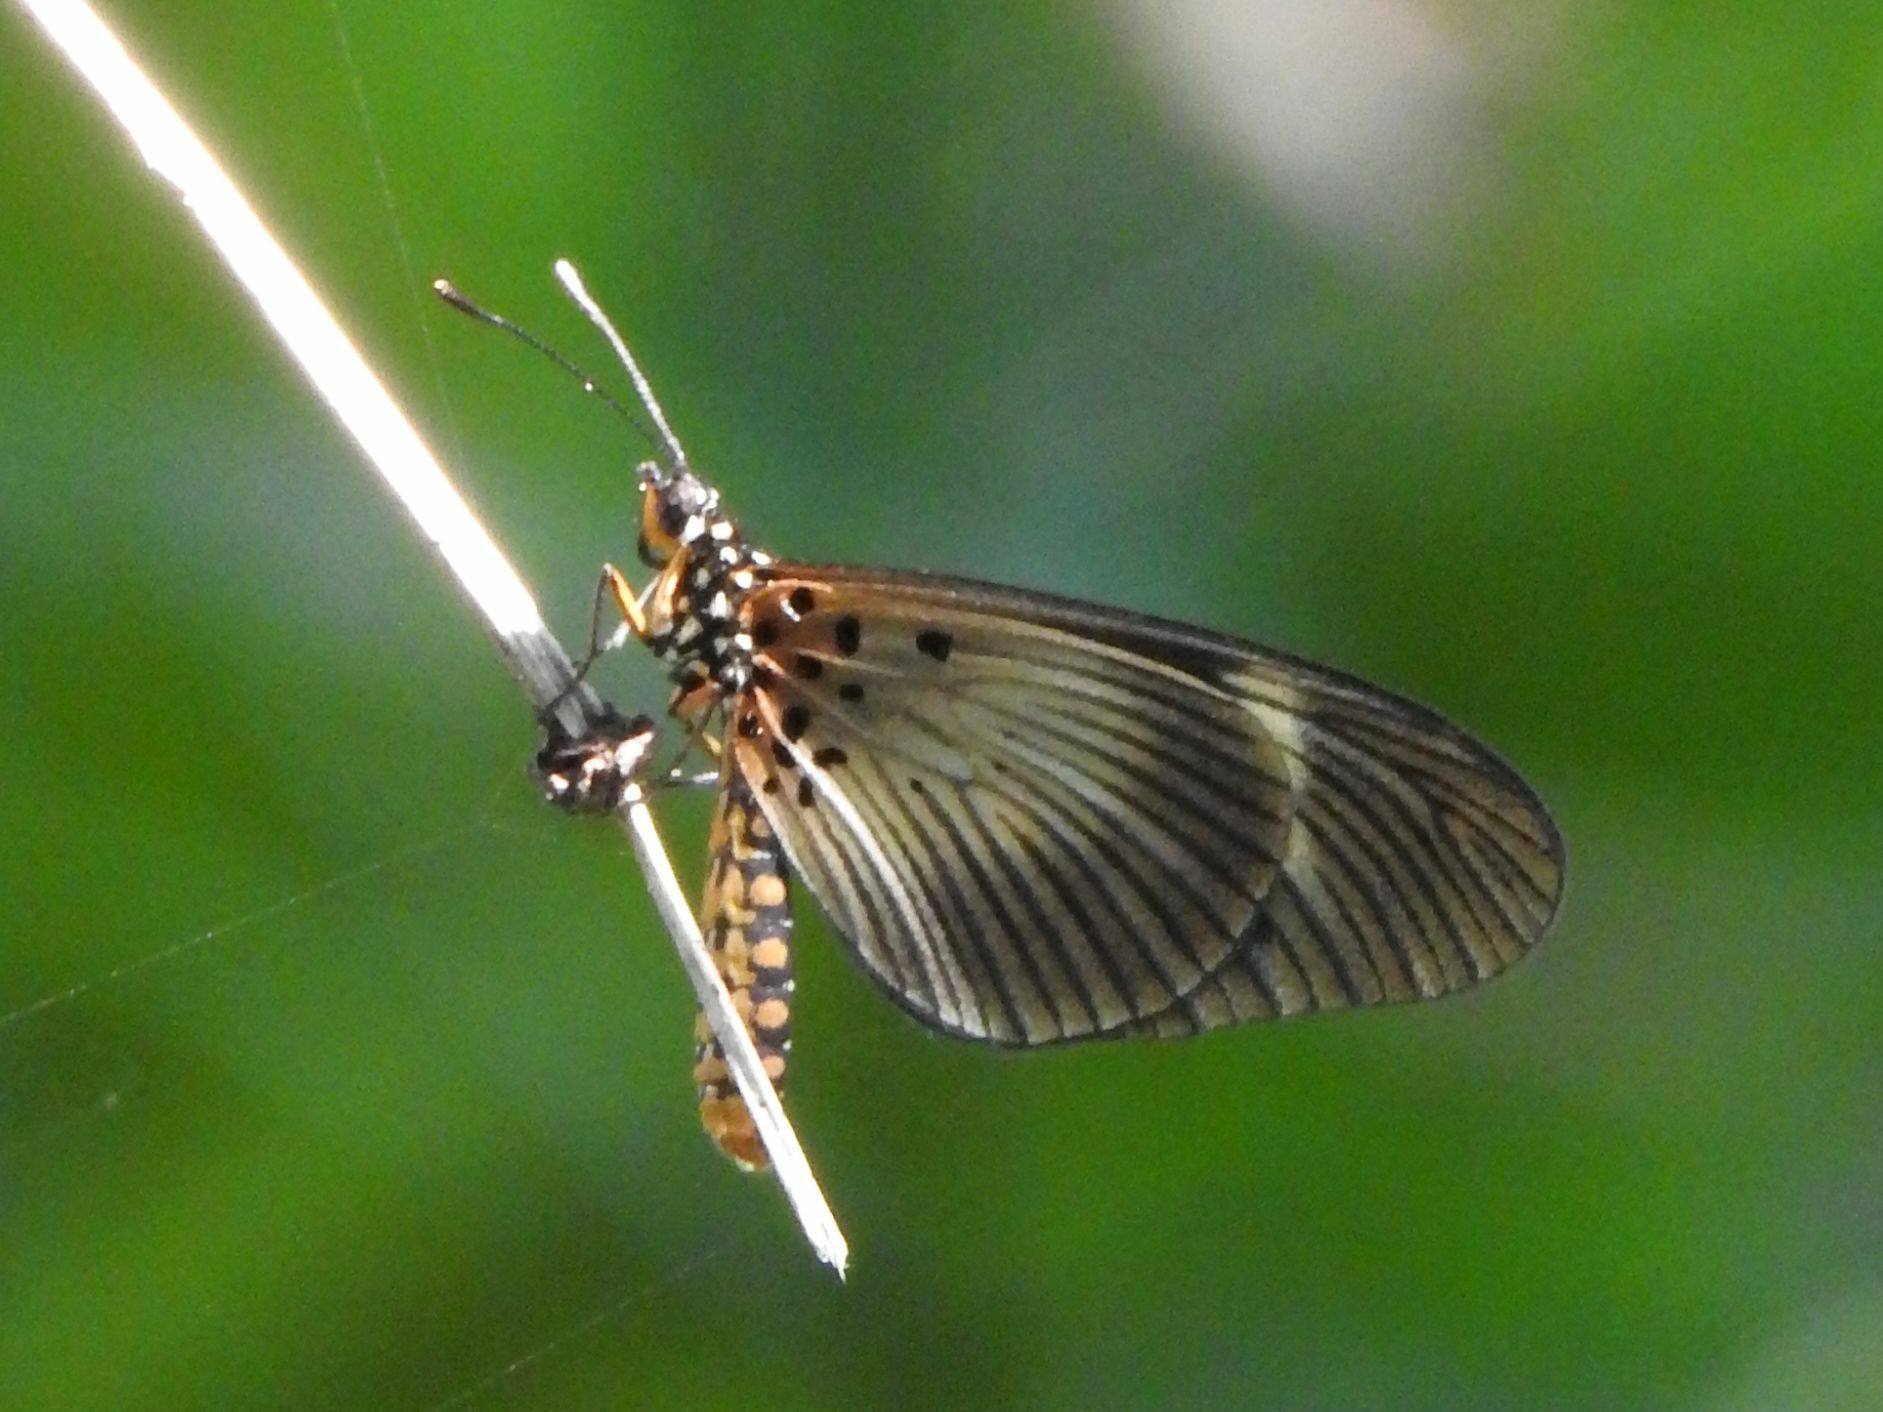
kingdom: Animalia
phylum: Arthropoda
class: Insecta
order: Lepidoptera
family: Nymphalidae
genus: Acraea
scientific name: Acraea esebria
